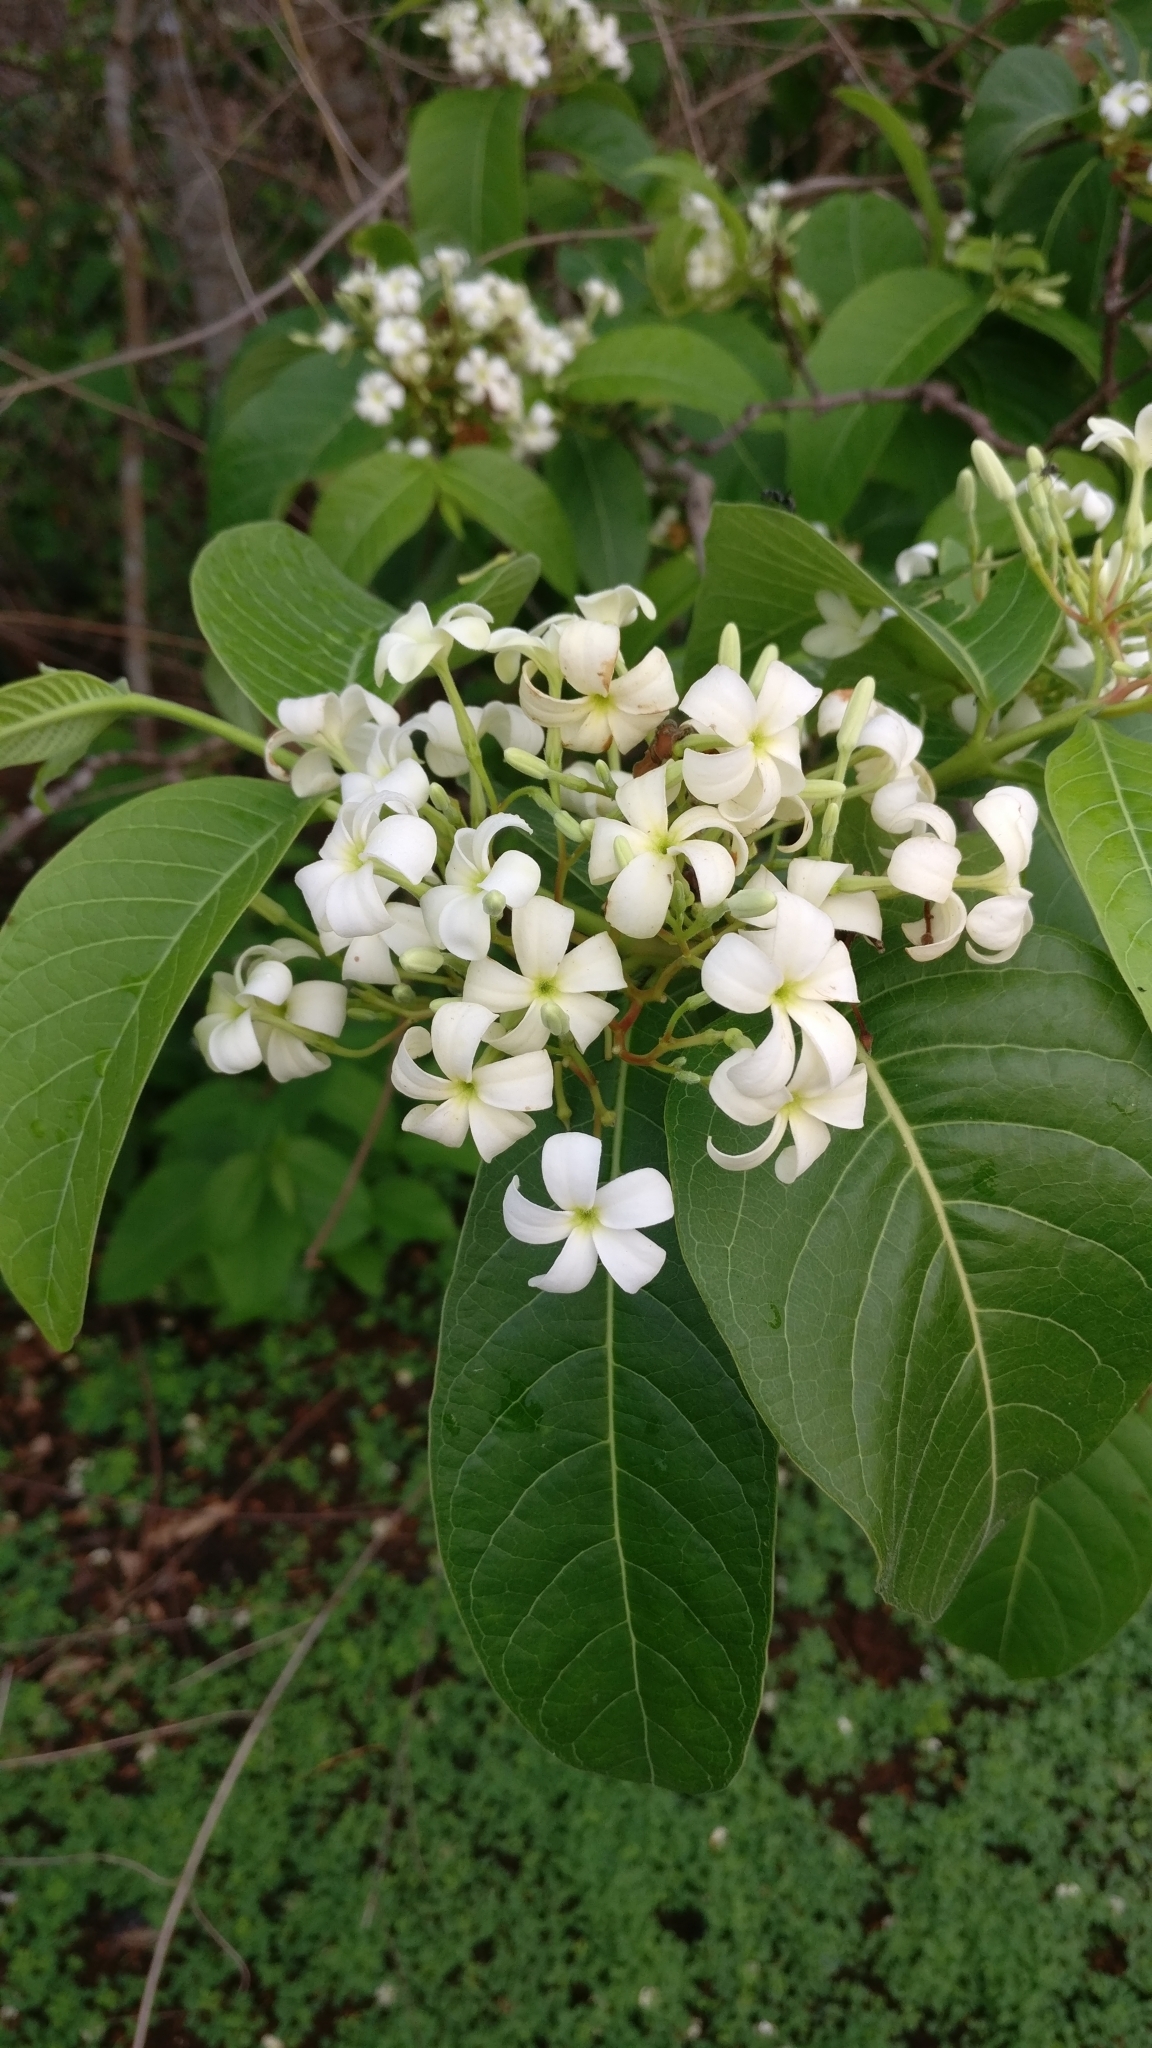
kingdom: Plantae
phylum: Tracheophyta
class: Magnoliopsida
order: Gentianales
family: Apocynaceae
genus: Holarrhena
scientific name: Holarrhena pubescens
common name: Bitter oleander
